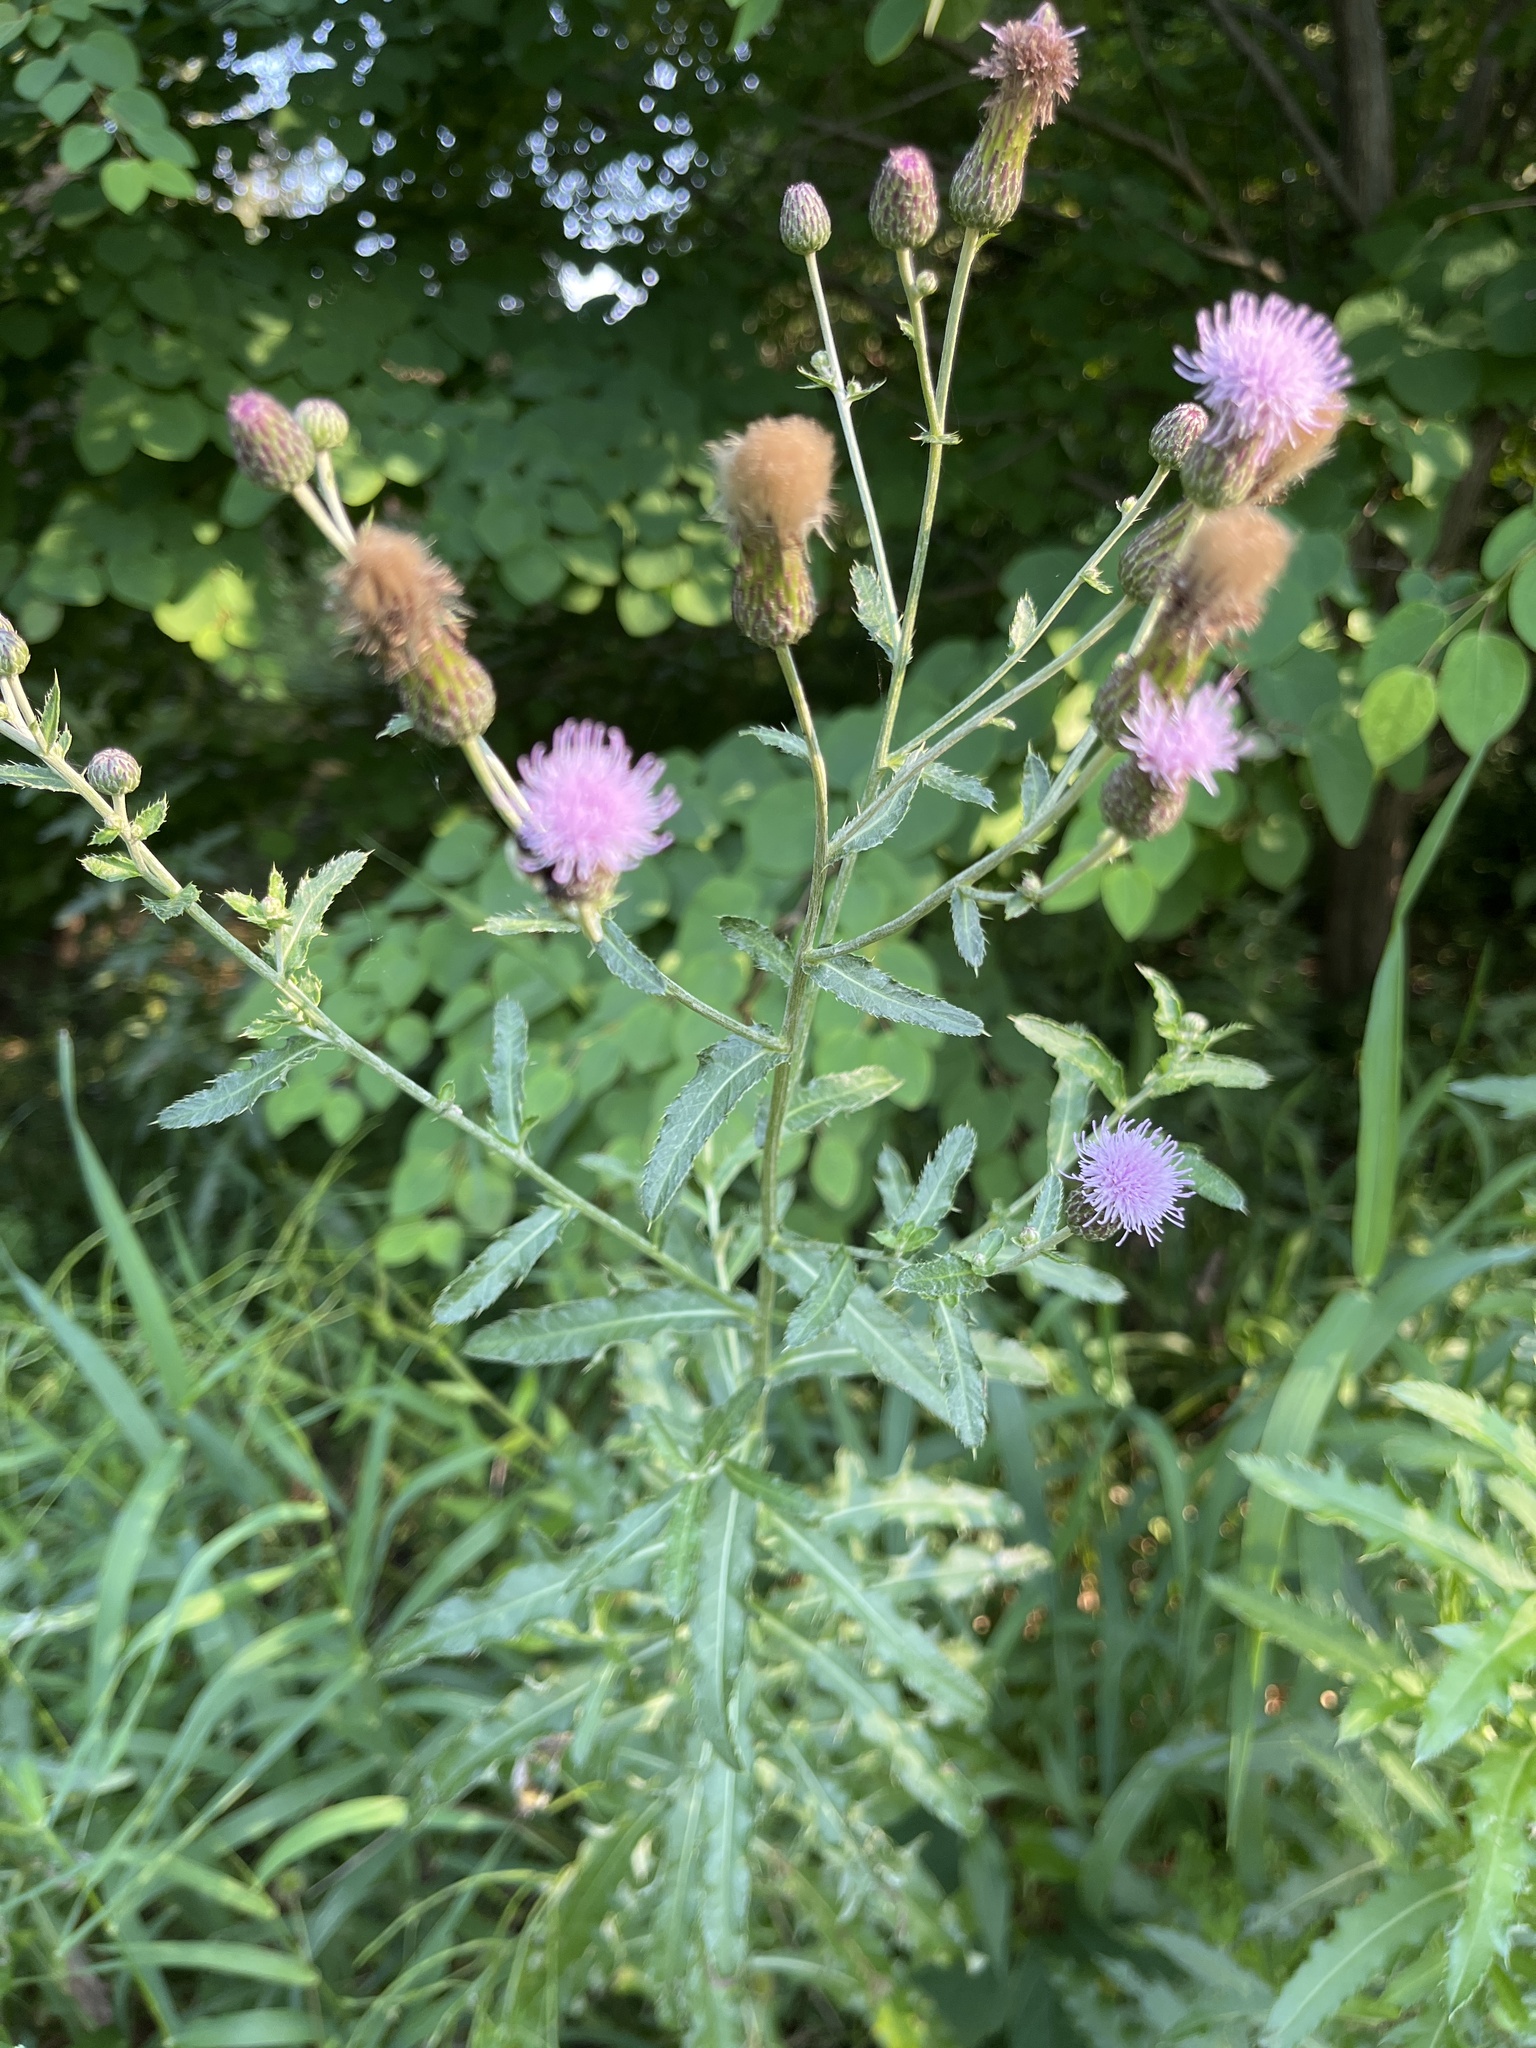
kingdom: Plantae
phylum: Tracheophyta
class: Magnoliopsida
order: Asterales
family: Asteraceae
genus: Cirsium
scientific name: Cirsium arvense
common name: Creeping thistle
